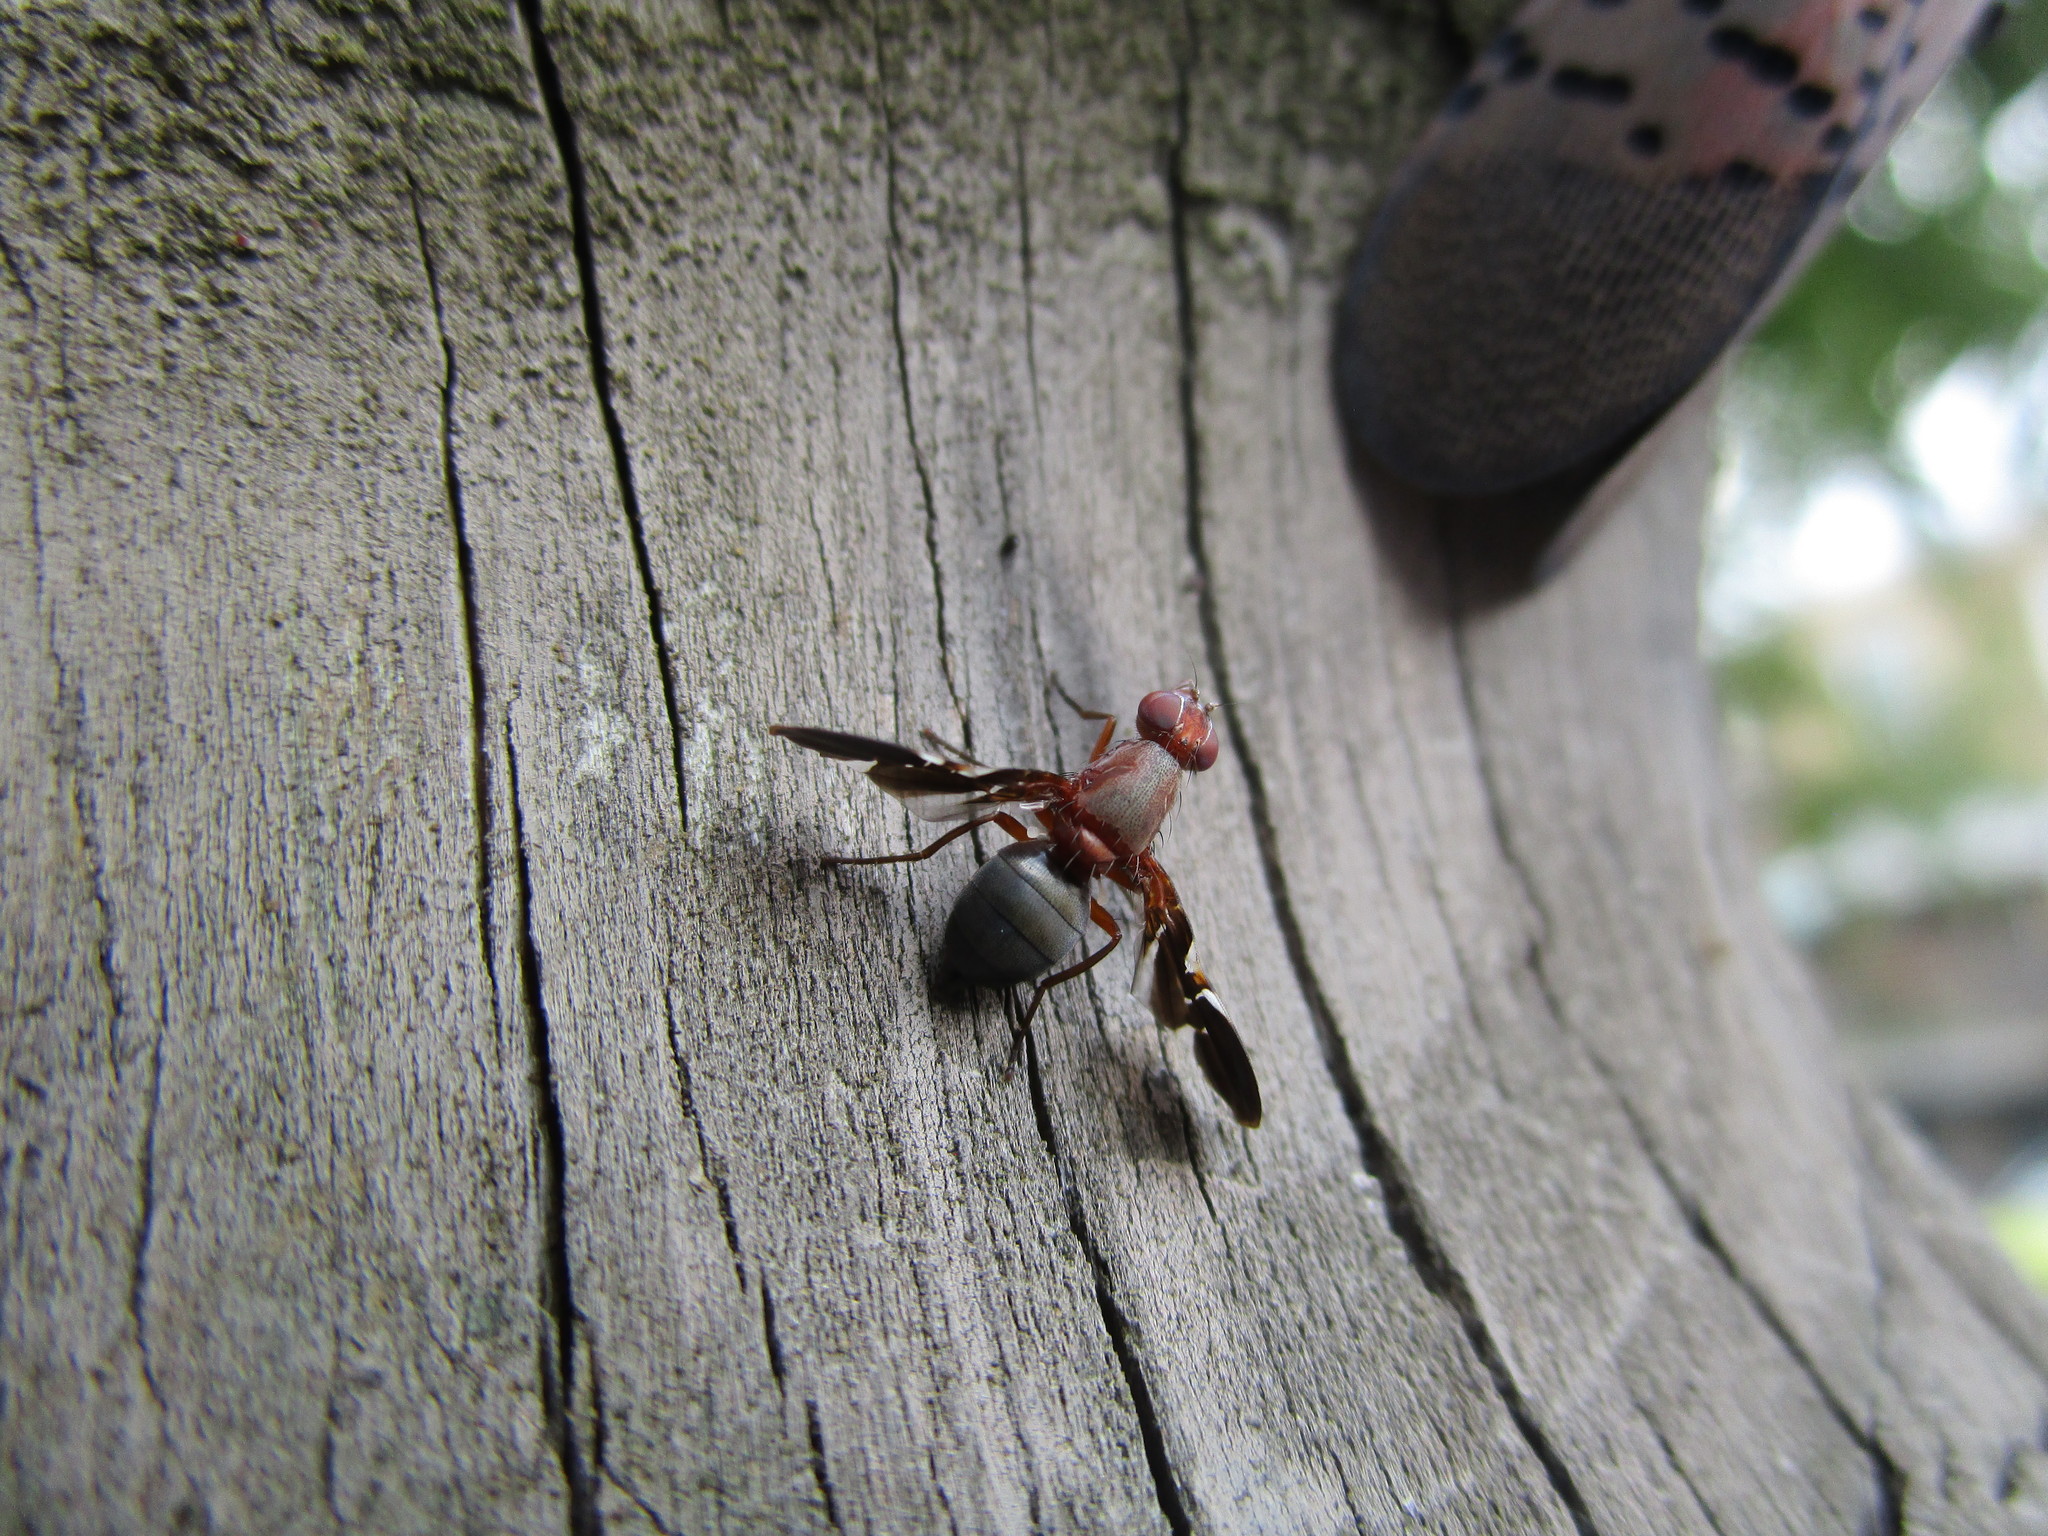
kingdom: Animalia
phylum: Arthropoda
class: Insecta
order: Diptera
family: Ulidiidae
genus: Delphinia
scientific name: Delphinia picta
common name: Common picture-winged fly
